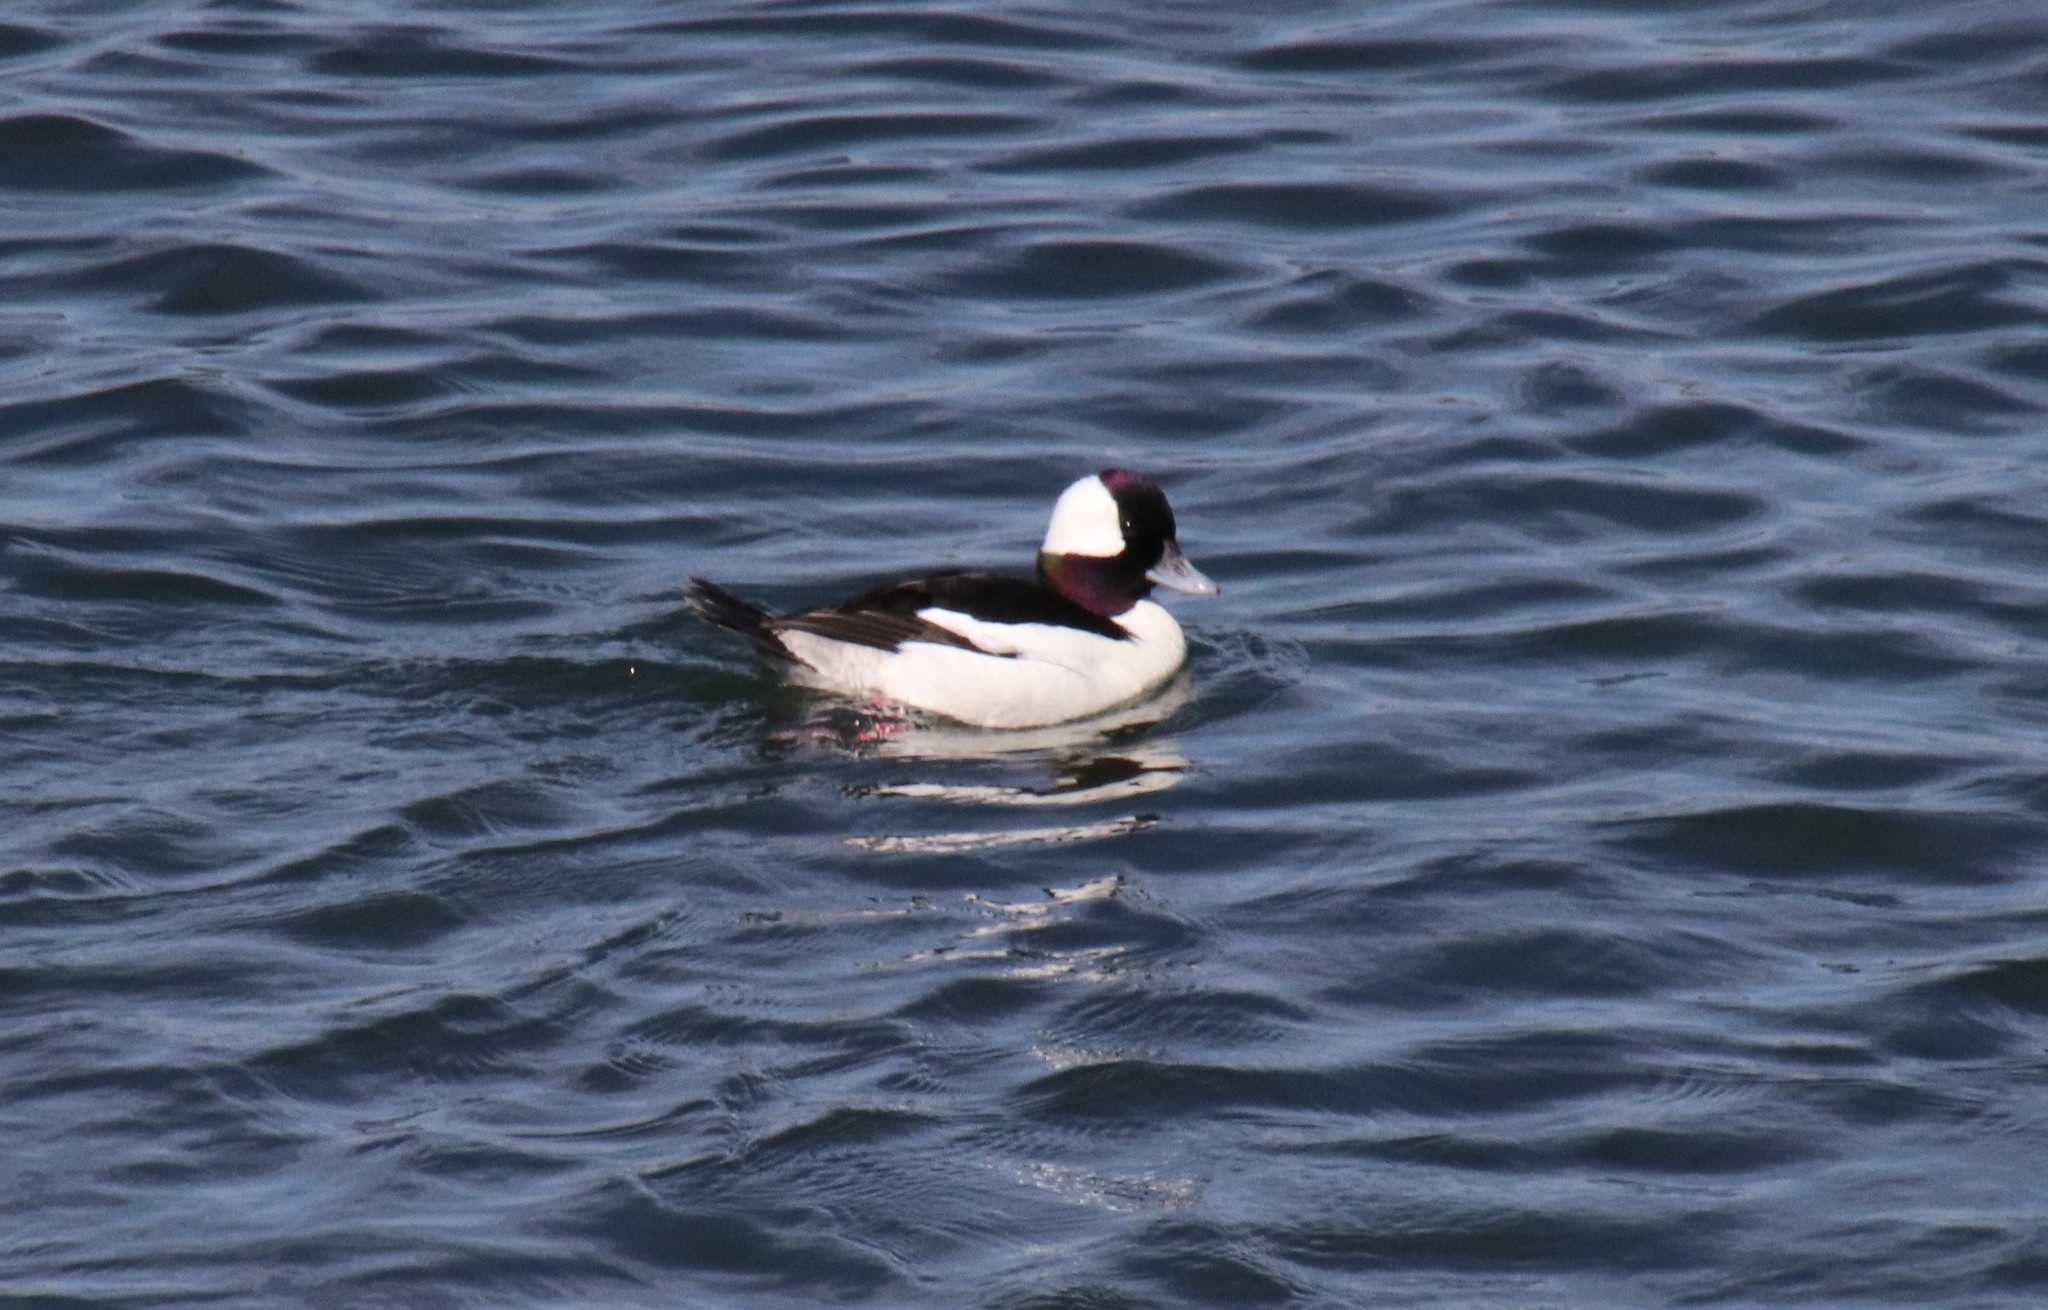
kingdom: Animalia
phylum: Chordata
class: Aves
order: Anseriformes
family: Anatidae
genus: Bucephala
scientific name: Bucephala albeola
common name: Bufflehead
